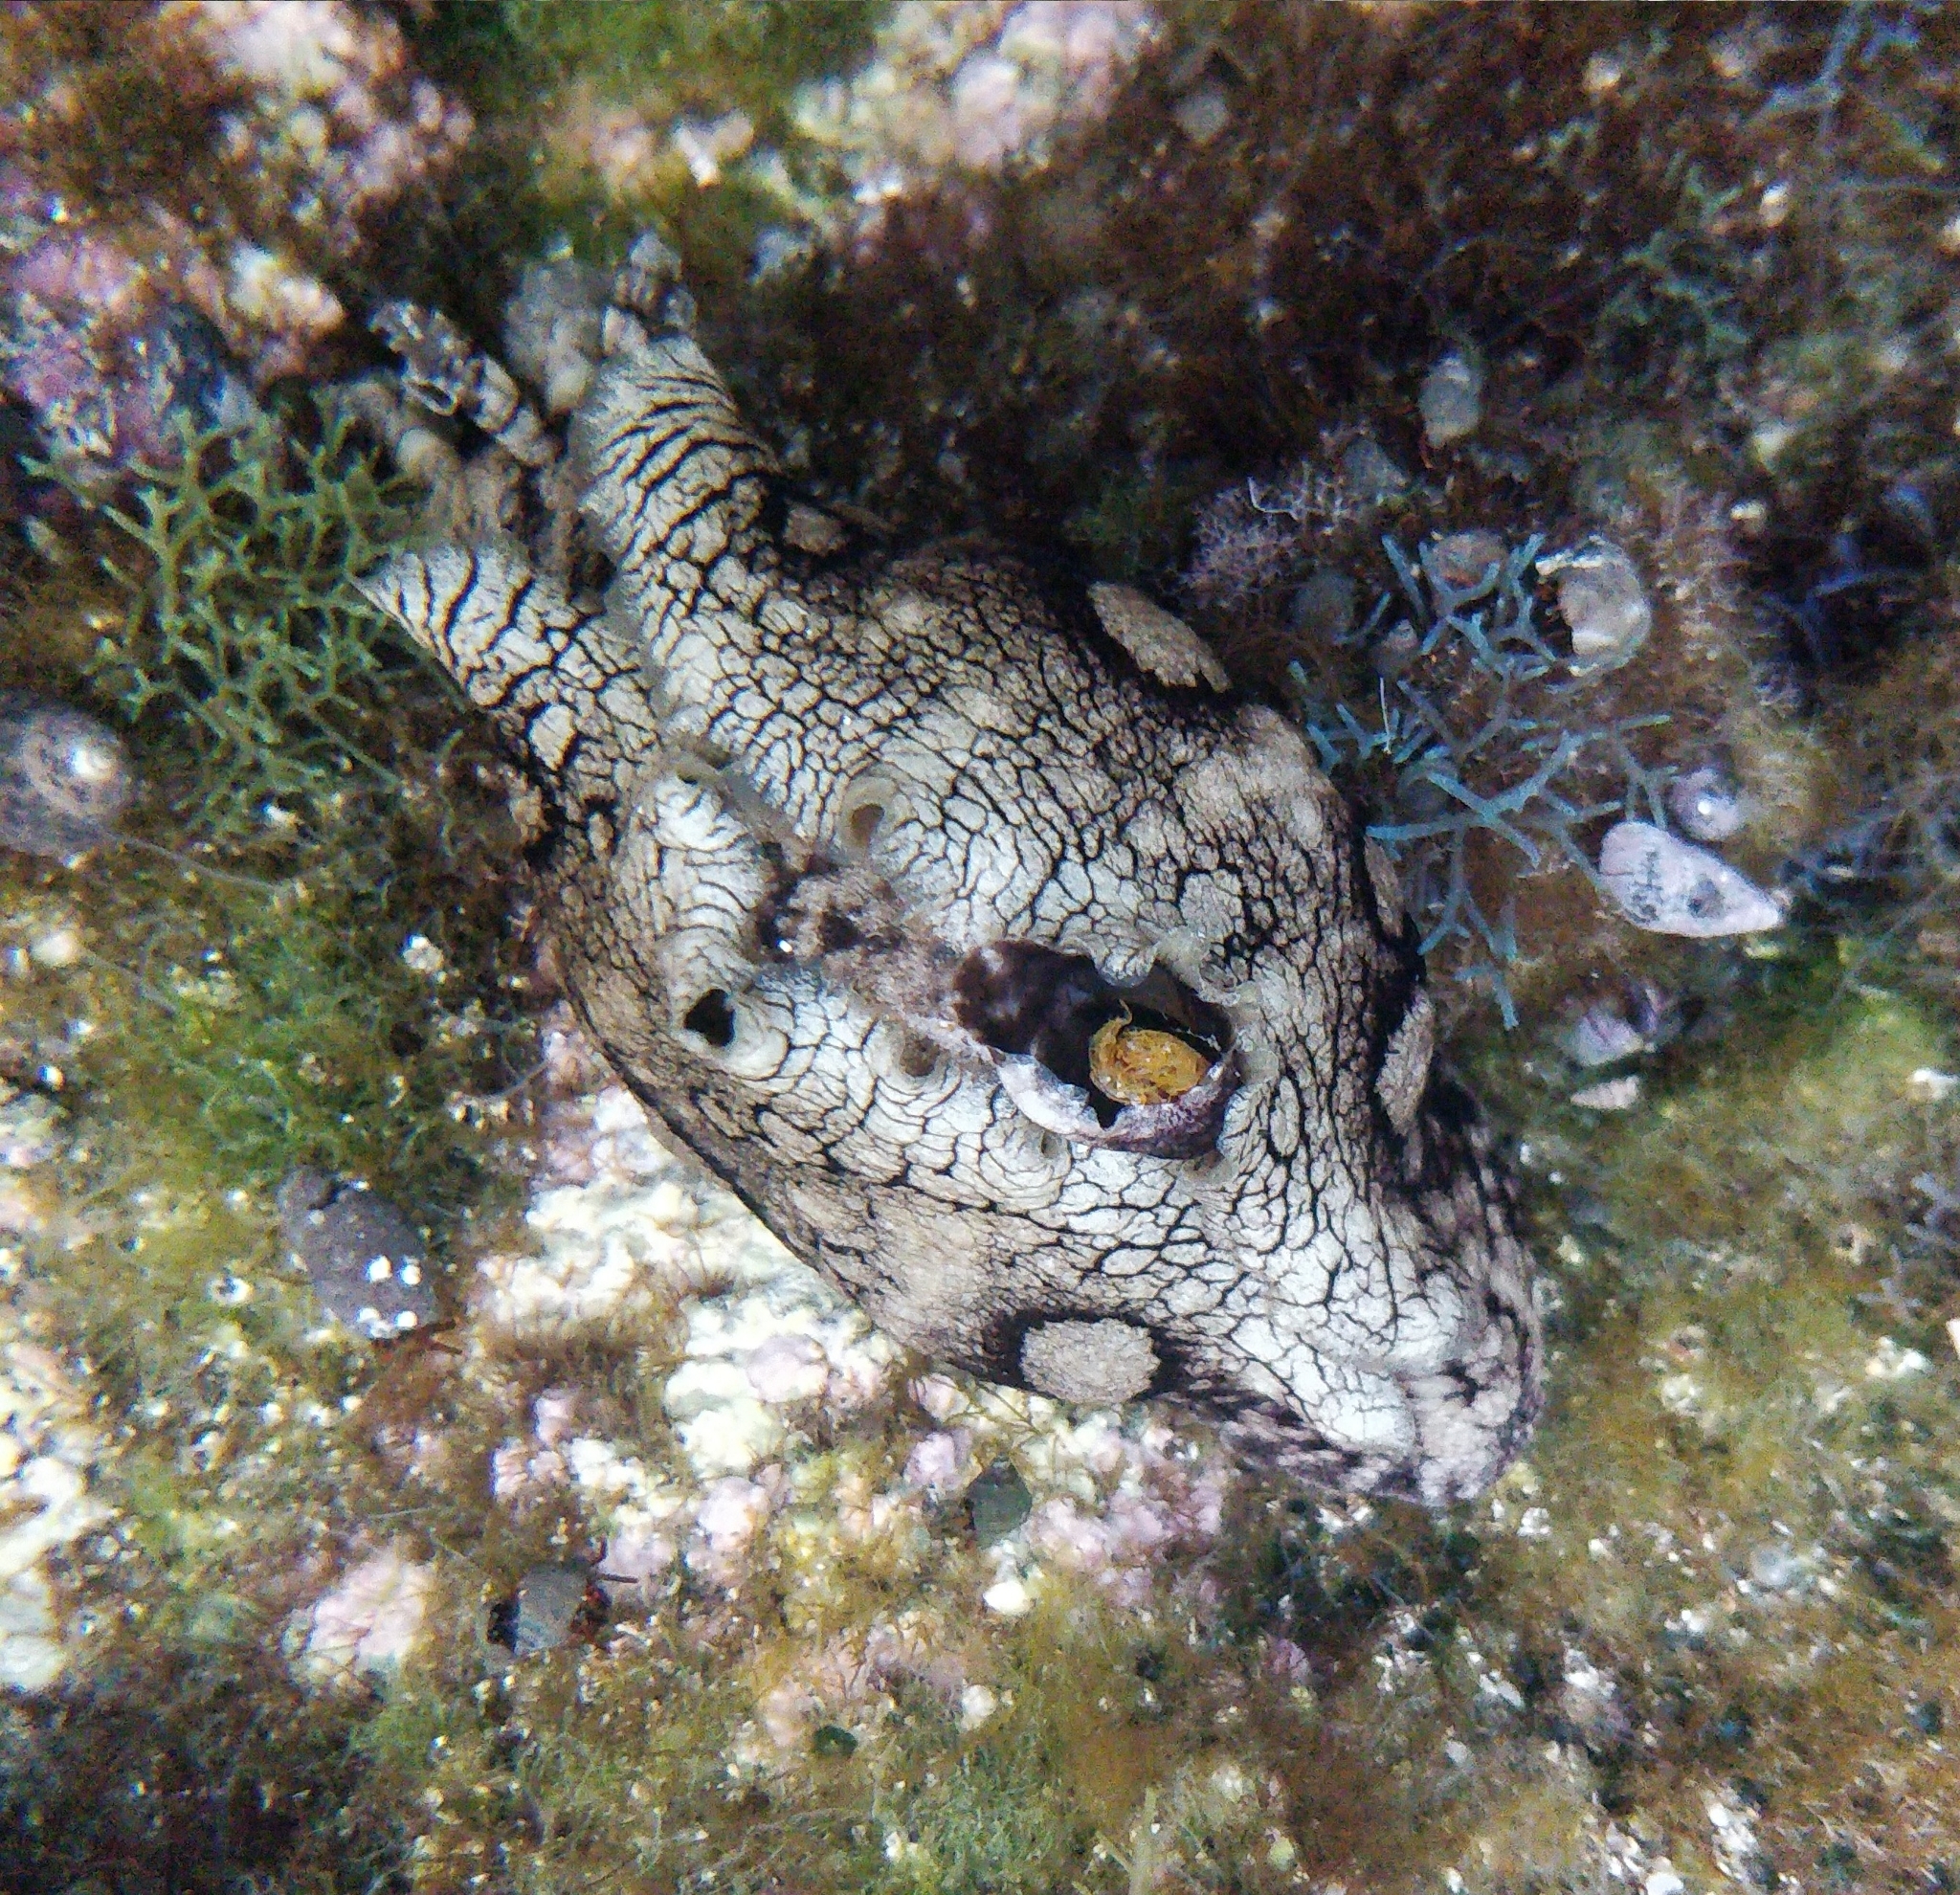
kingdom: Animalia
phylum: Mollusca
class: Gastropoda
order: Aplysiida
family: Aplysiidae
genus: Aplysia
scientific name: Aplysia dactylomela
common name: Large-spotted sea hare
